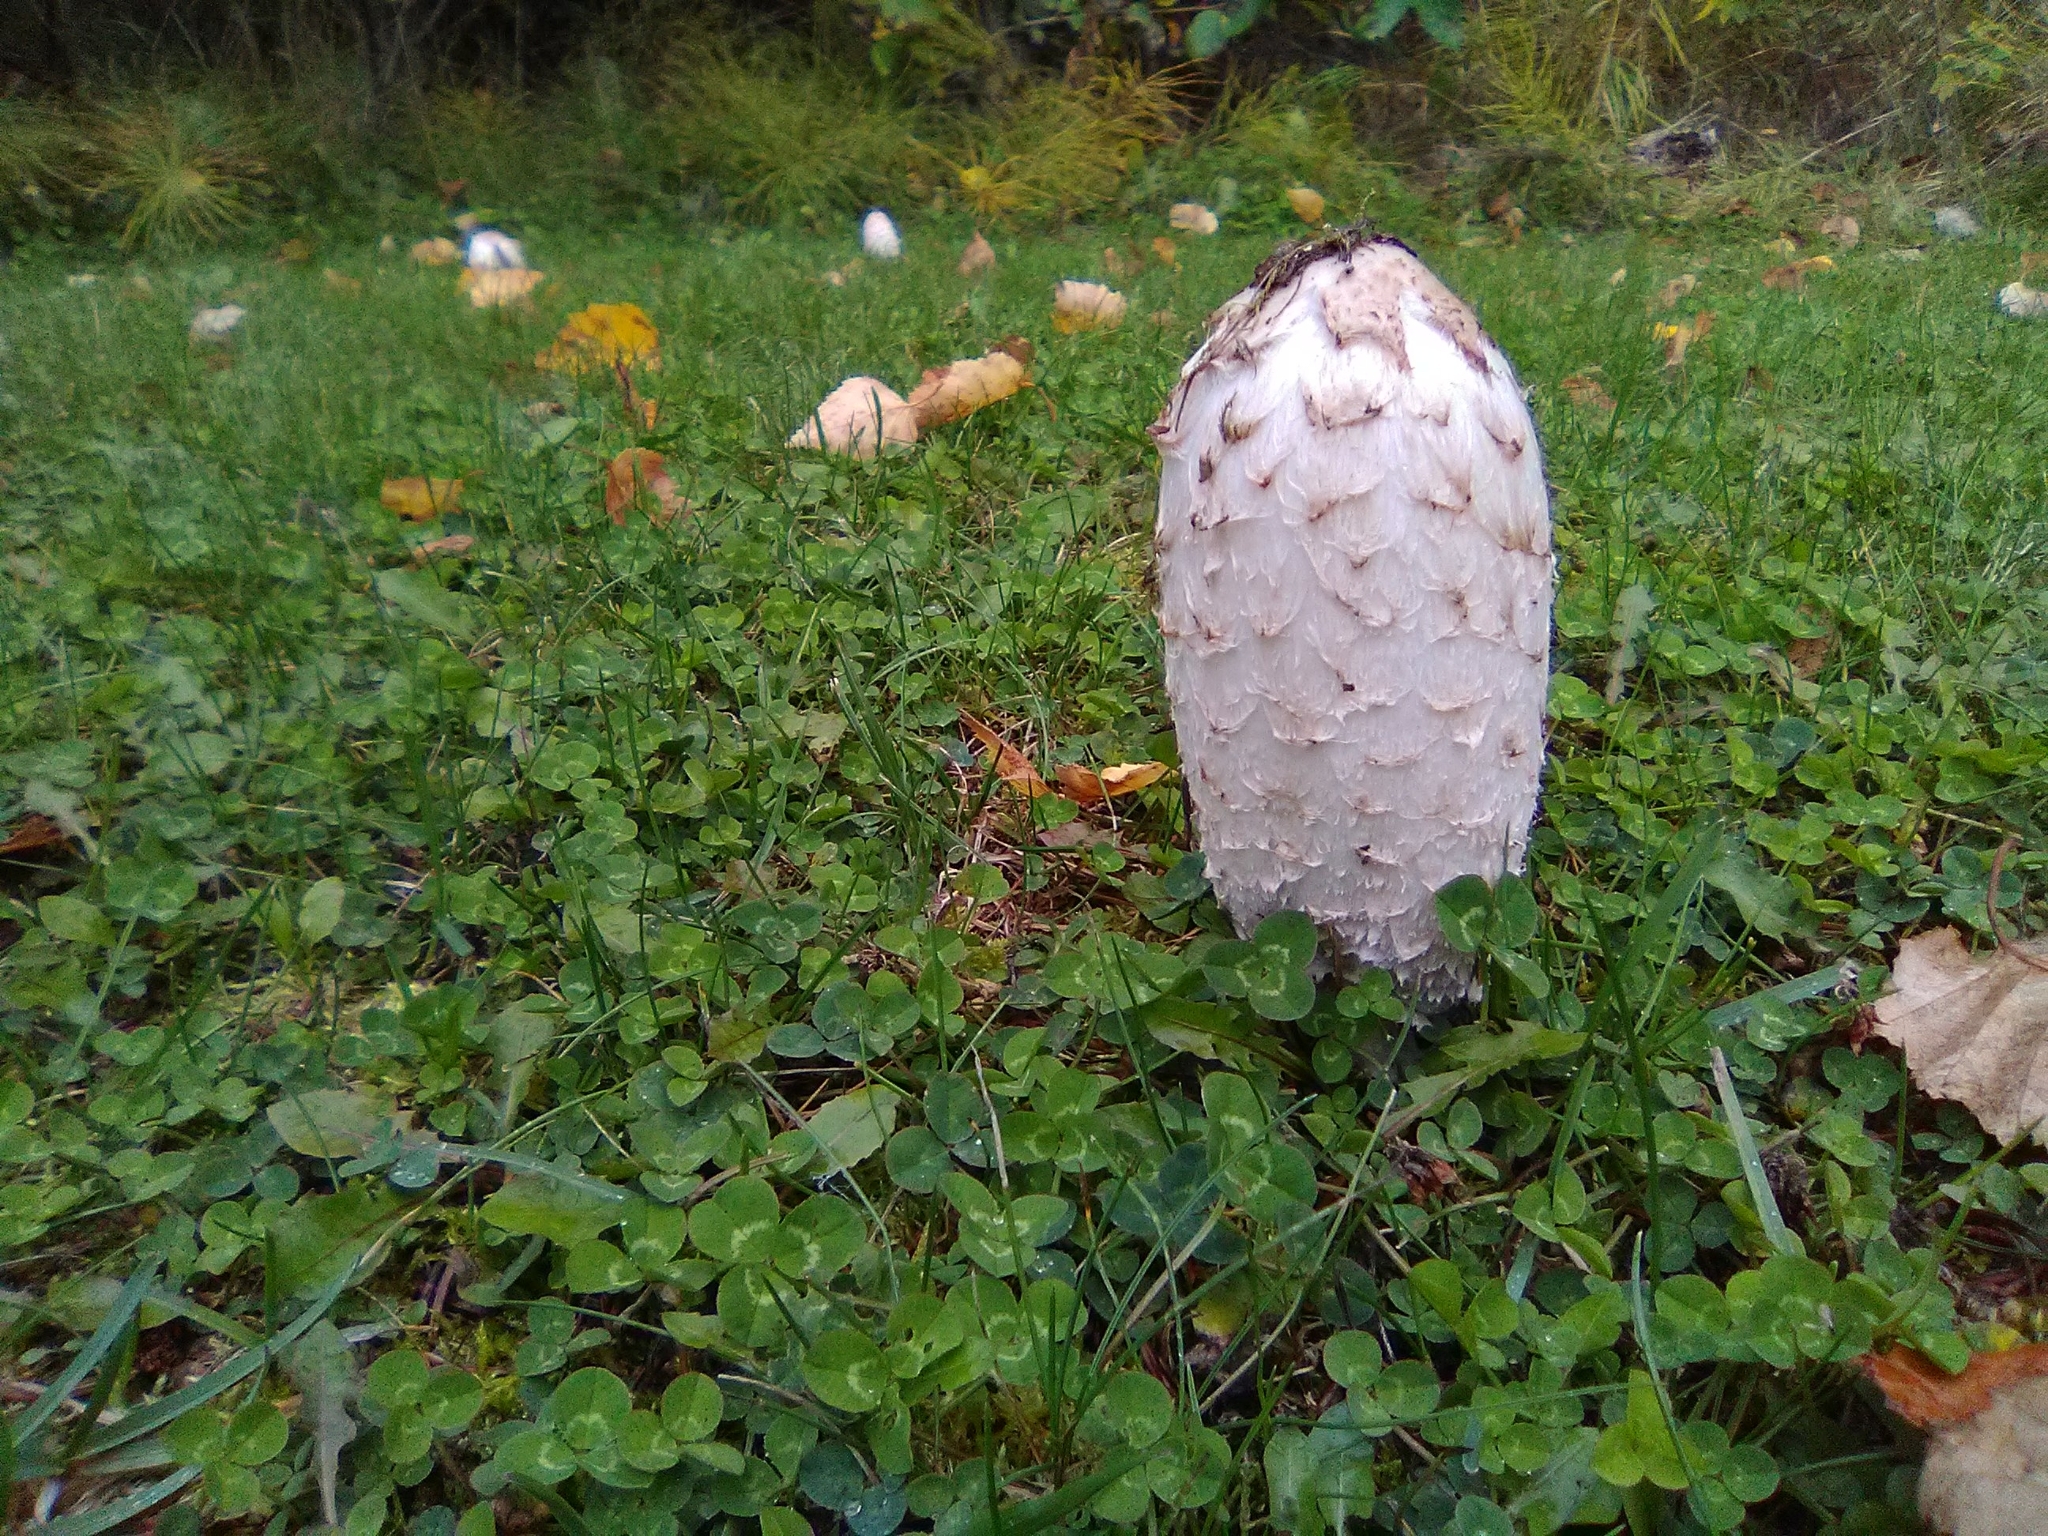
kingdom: Fungi
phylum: Basidiomycota
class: Agaricomycetes
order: Agaricales
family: Agaricaceae
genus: Coprinus
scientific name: Coprinus comatus
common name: Lawyer's wig
